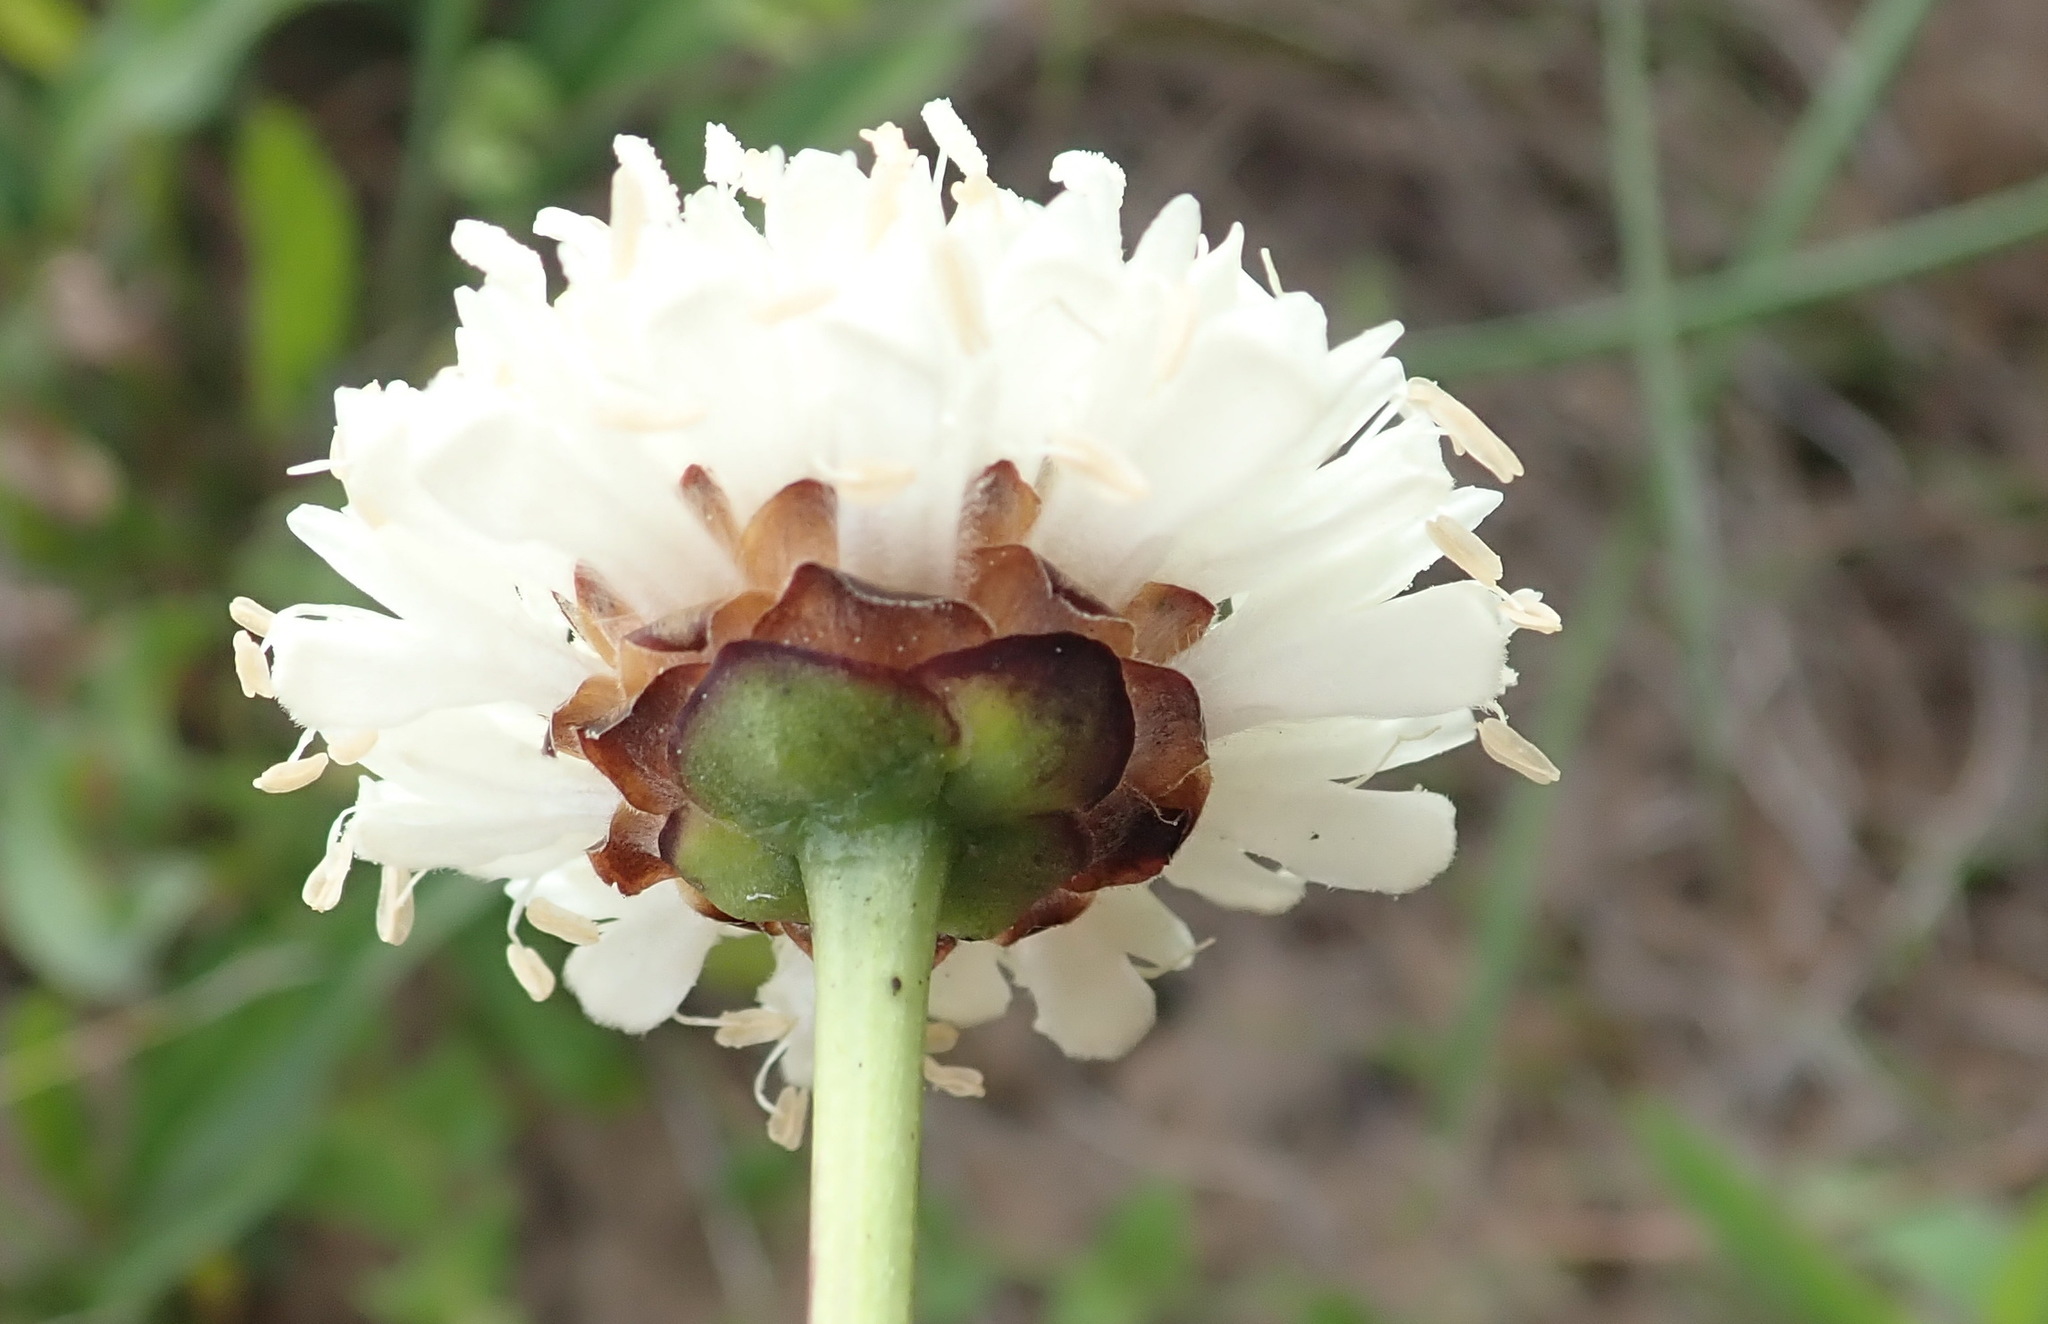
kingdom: Plantae
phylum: Tracheophyta
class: Magnoliopsida
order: Dipsacales
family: Caprifoliaceae
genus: Cephalaria
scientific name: Cephalaria humilis
